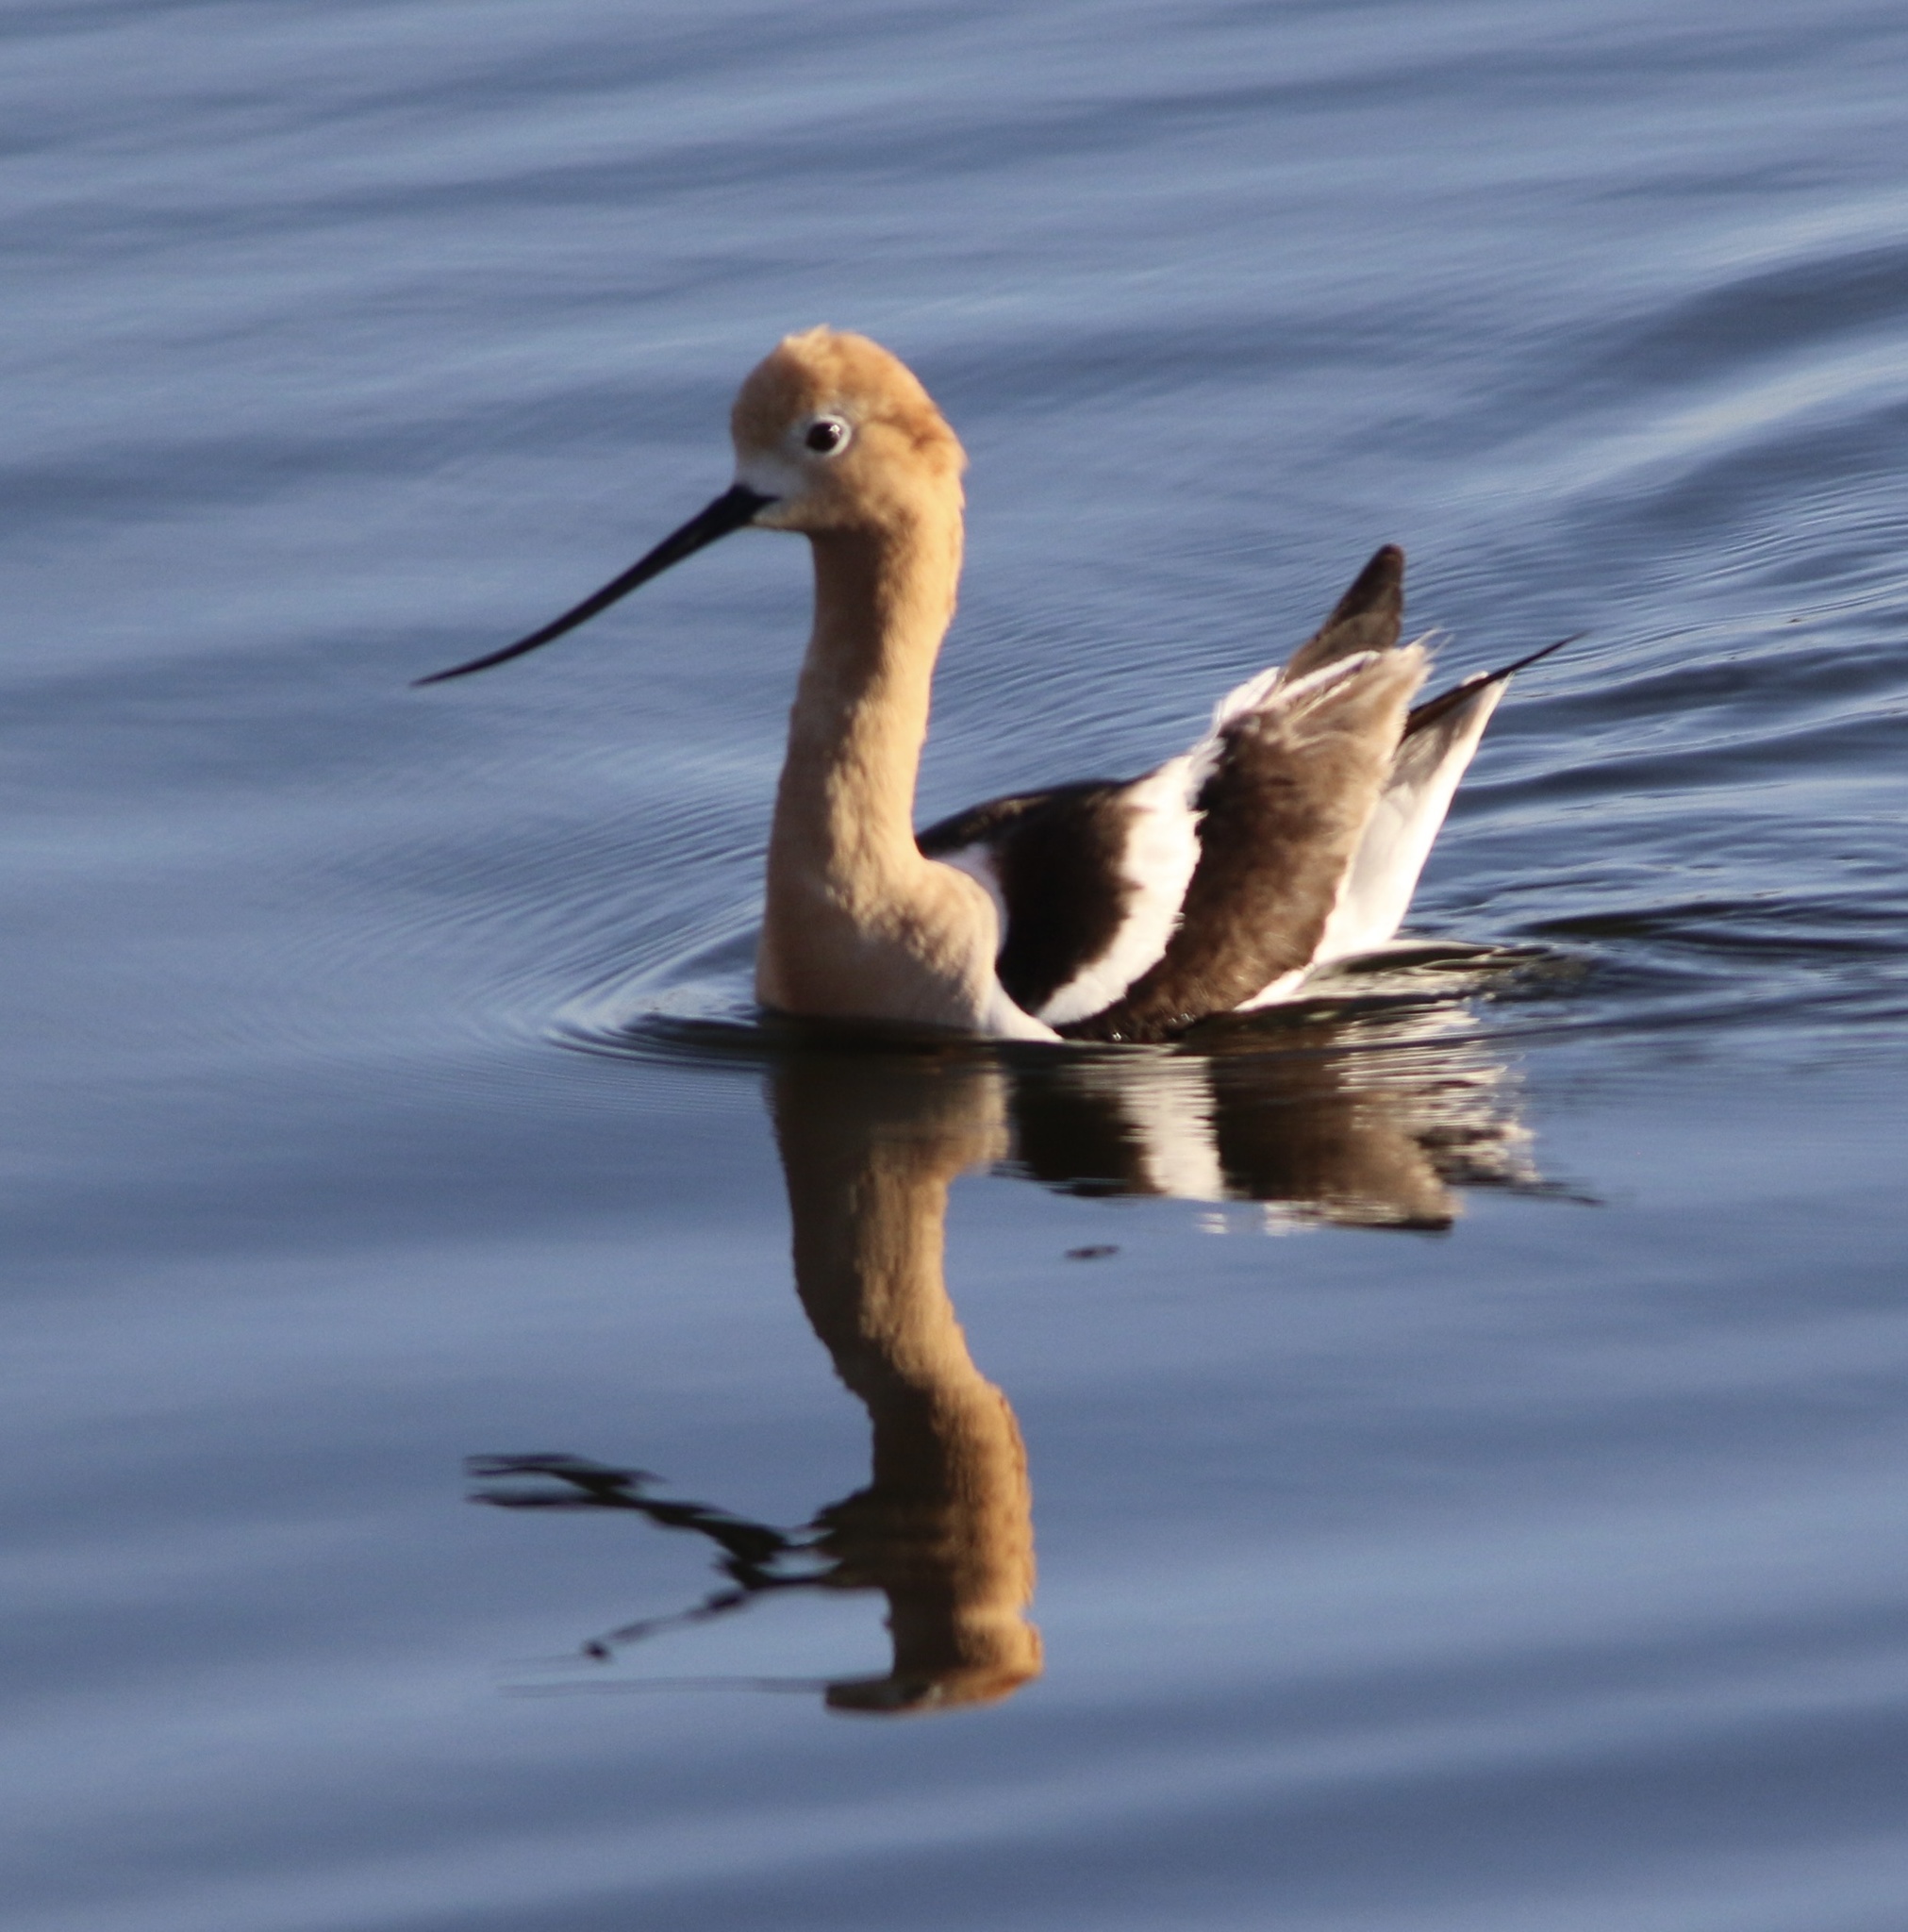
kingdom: Animalia
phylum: Chordata
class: Aves
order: Charadriiformes
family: Recurvirostridae
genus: Recurvirostra
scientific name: Recurvirostra americana
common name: American avocet
